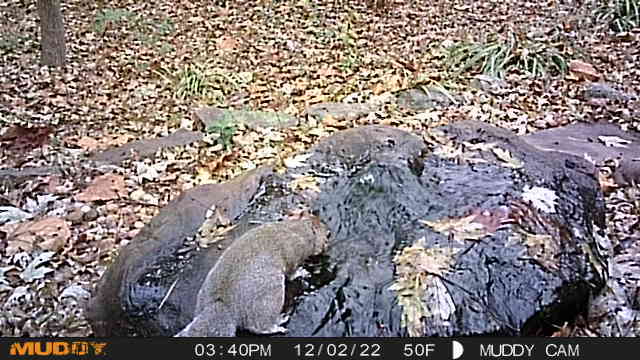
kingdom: Animalia
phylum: Chordata
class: Mammalia
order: Rodentia
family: Sciuridae
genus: Sciurus
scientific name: Sciurus carolinensis
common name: Eastern gray squirrel
